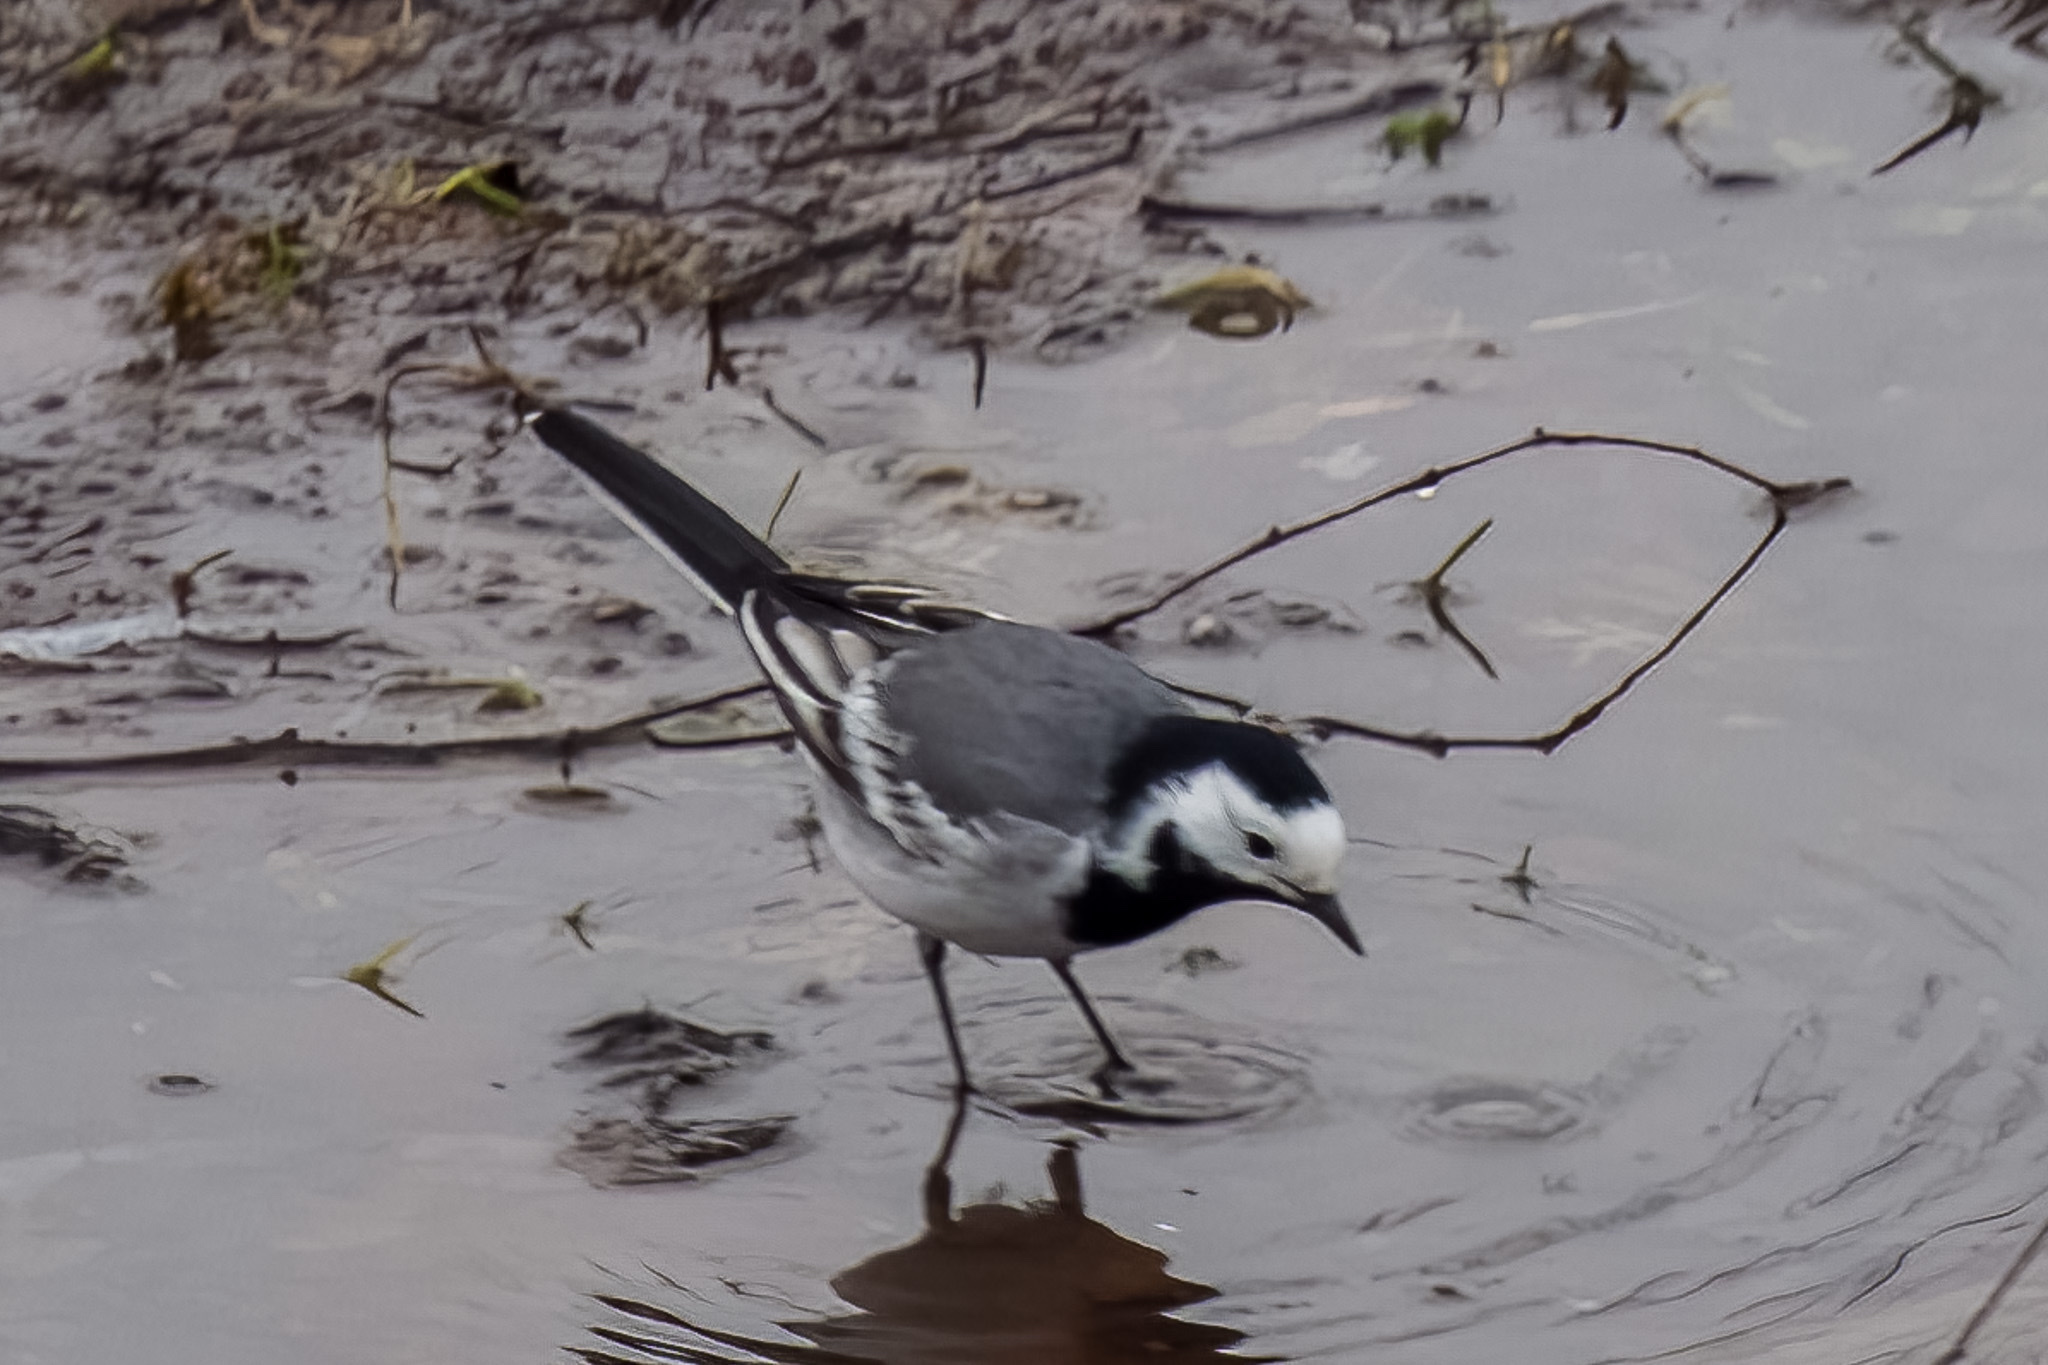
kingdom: Animalia
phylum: Chordata
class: Aves
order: Passeriformes
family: Motacillidae
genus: Motacilla
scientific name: Motacilla alba
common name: White wagtail
